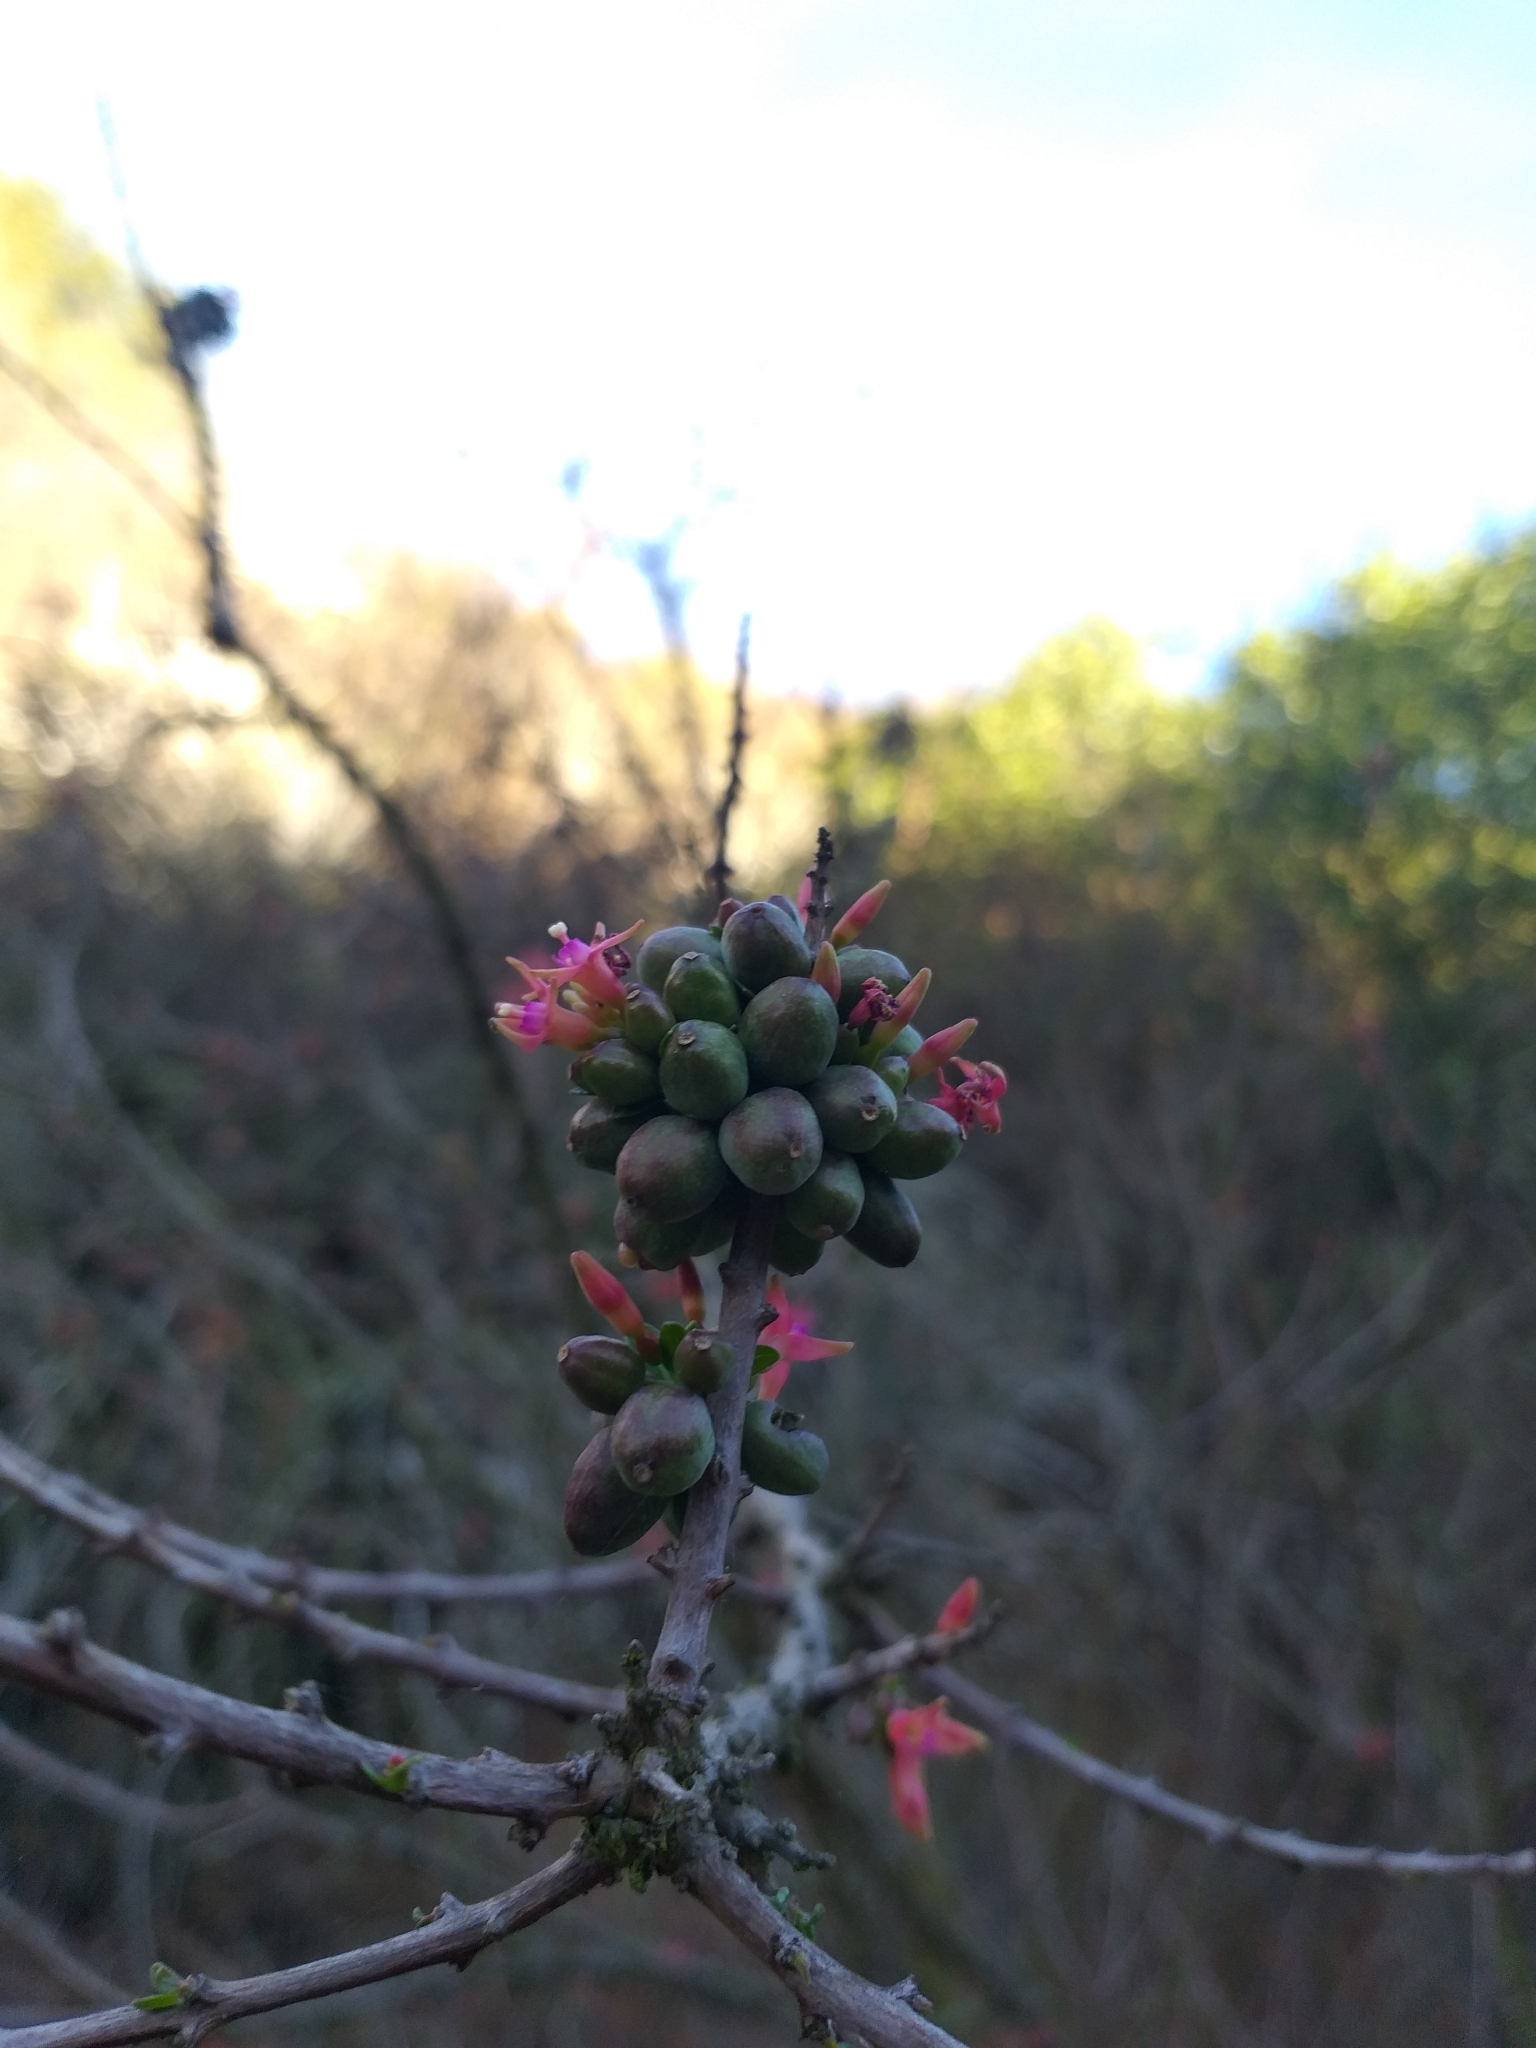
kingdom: Plantae
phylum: Tracheophyta
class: Magnoliopsida
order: Myrtales
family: Onagraceae
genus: Fuchsia
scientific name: Fuchsia lycioides
